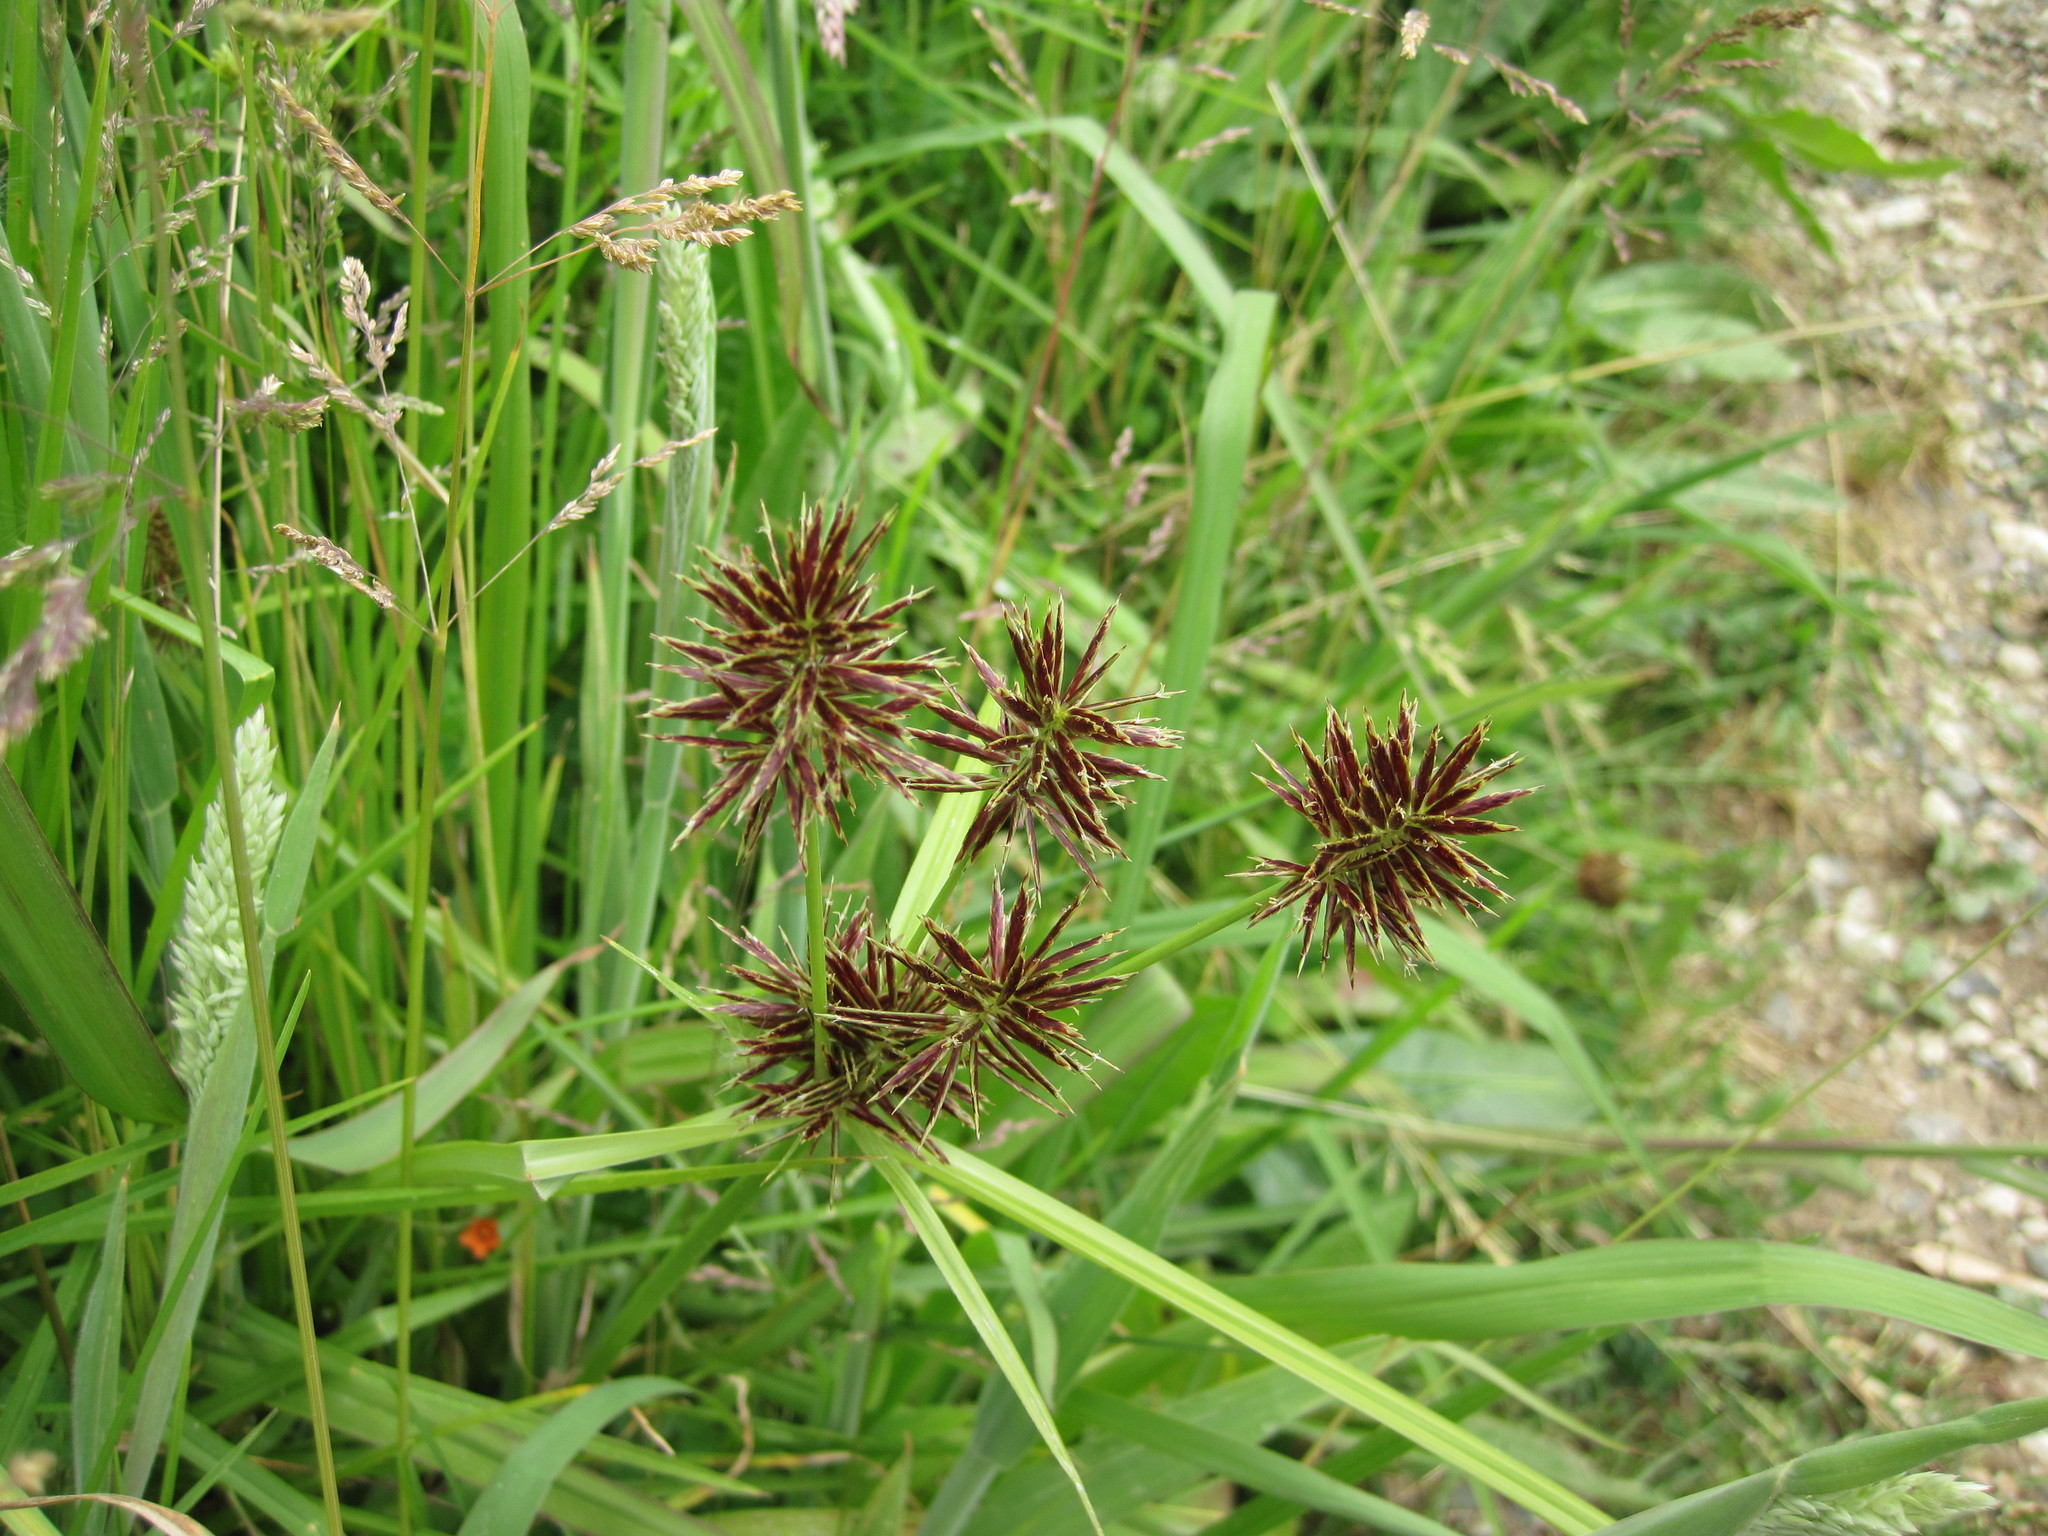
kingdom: Plantae
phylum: Tracheophyta
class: Liliopsida
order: Poales
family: Cyperaceae
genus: Cyperus
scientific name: Cyperus congestus
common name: Dense flat sedge
